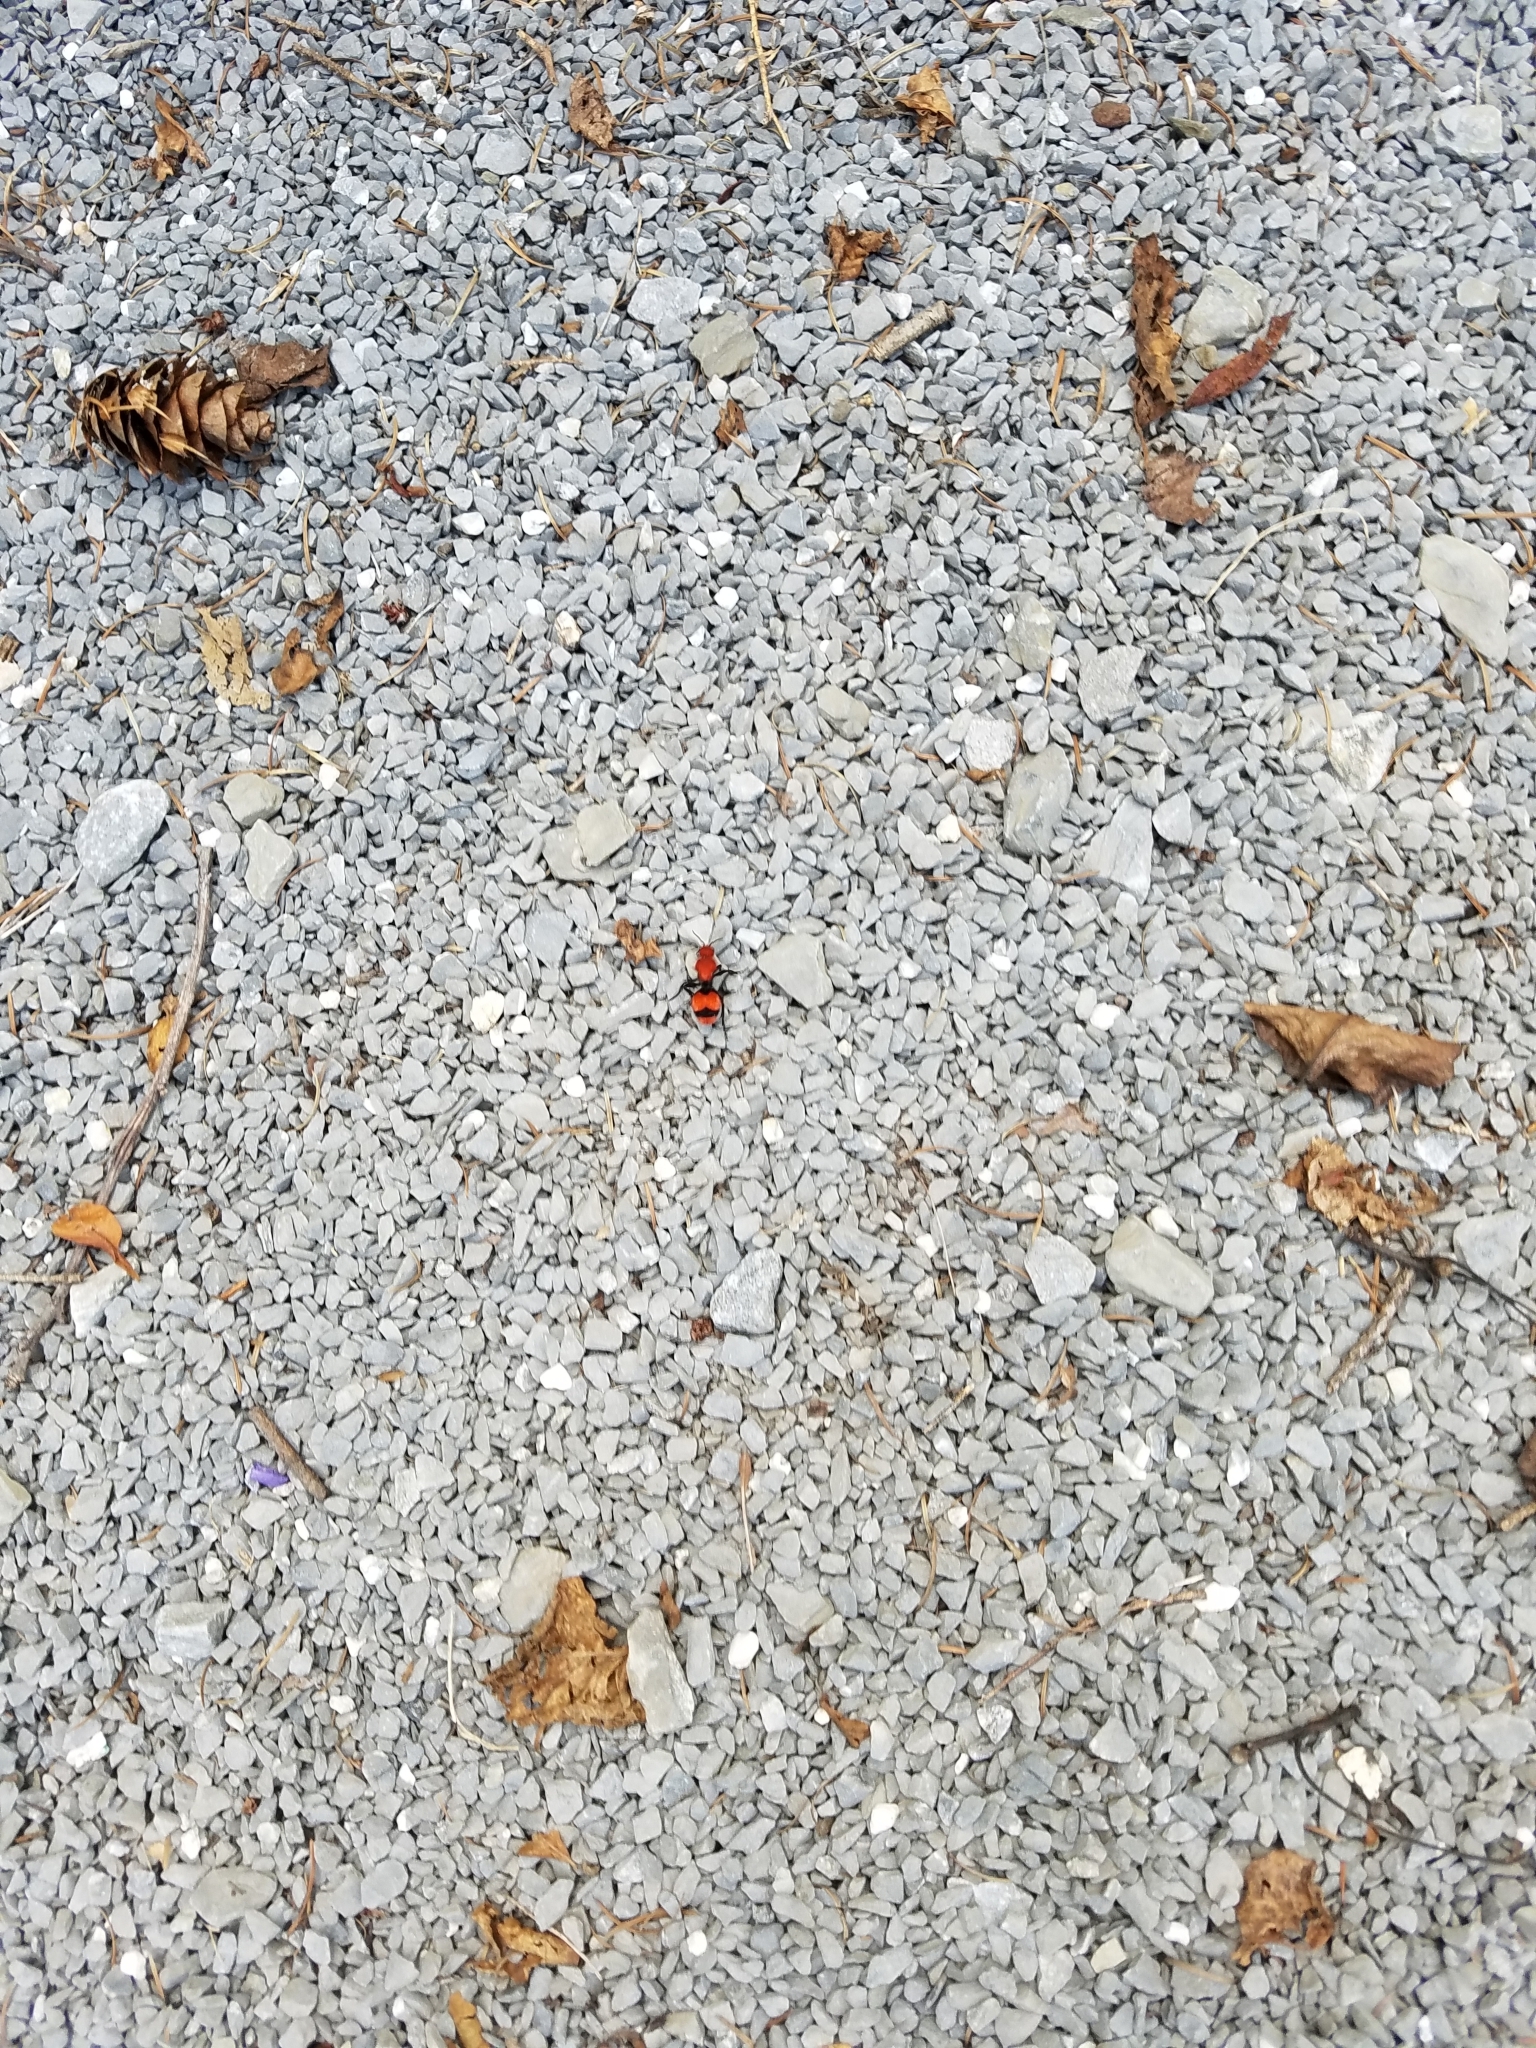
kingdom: Animalia
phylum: Arthropoda
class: Insecta
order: Hymenoptera
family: Mutillidae
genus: Dasymutilla
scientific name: Dasymutilla occidentalis
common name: Common eastern velvet ant
